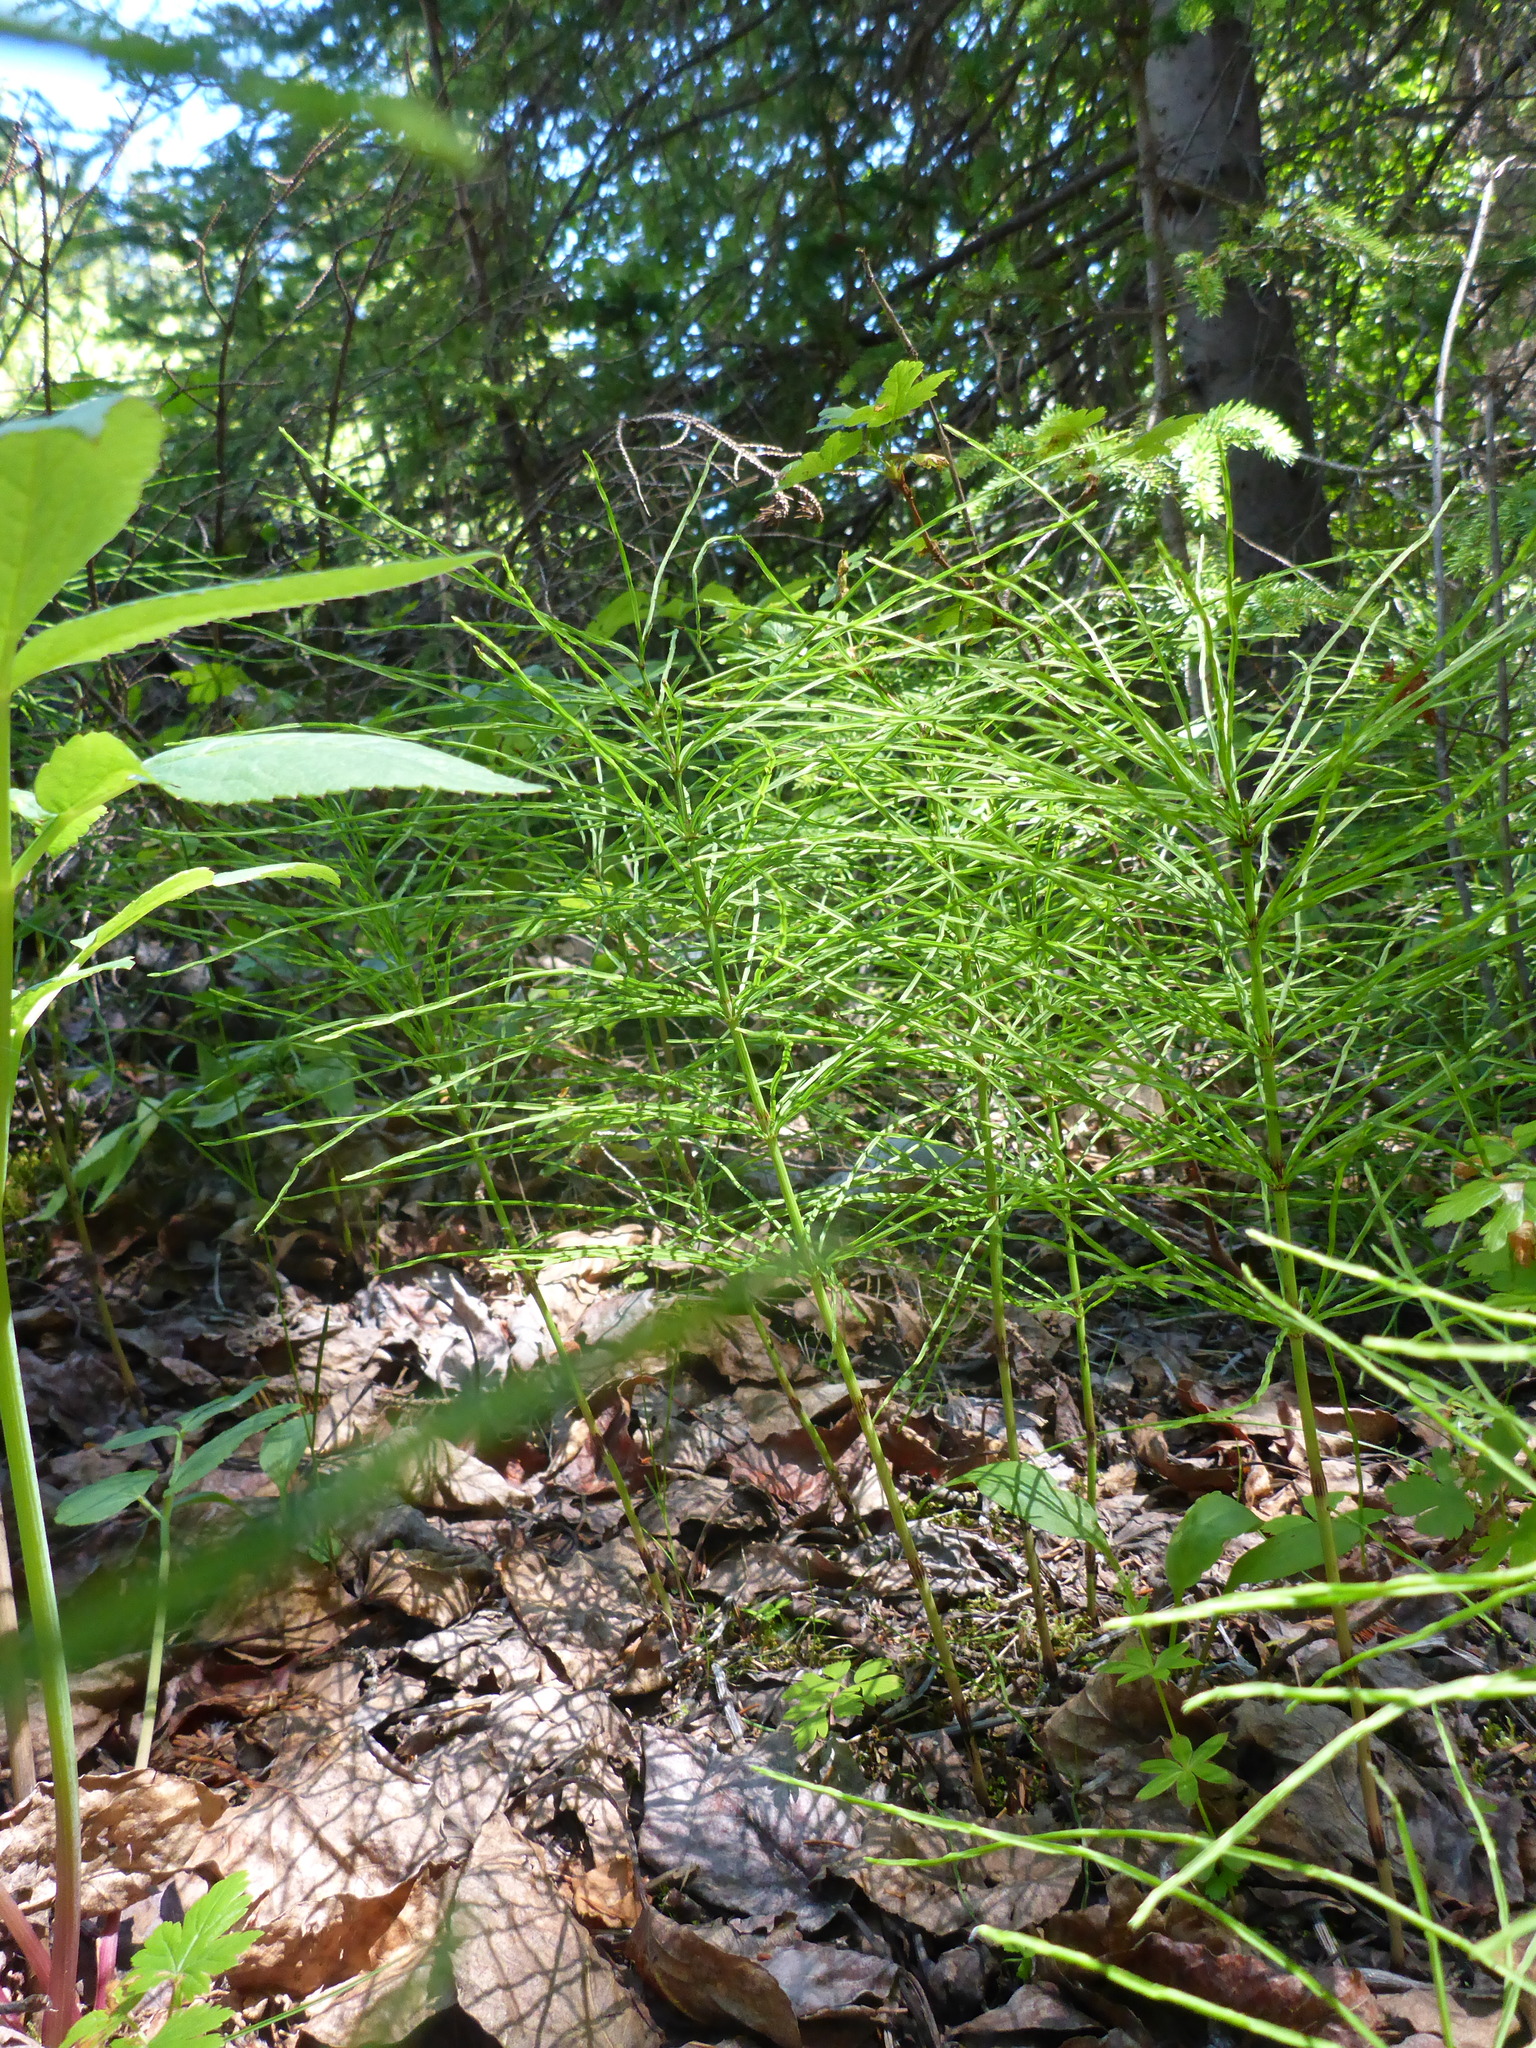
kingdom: Plantae
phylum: Tracheophyta
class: Polypodiopsida
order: Equisetales
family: Equisetaceae
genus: Equisetum
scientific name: Equisetum pratense
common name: Meadow horsetail
